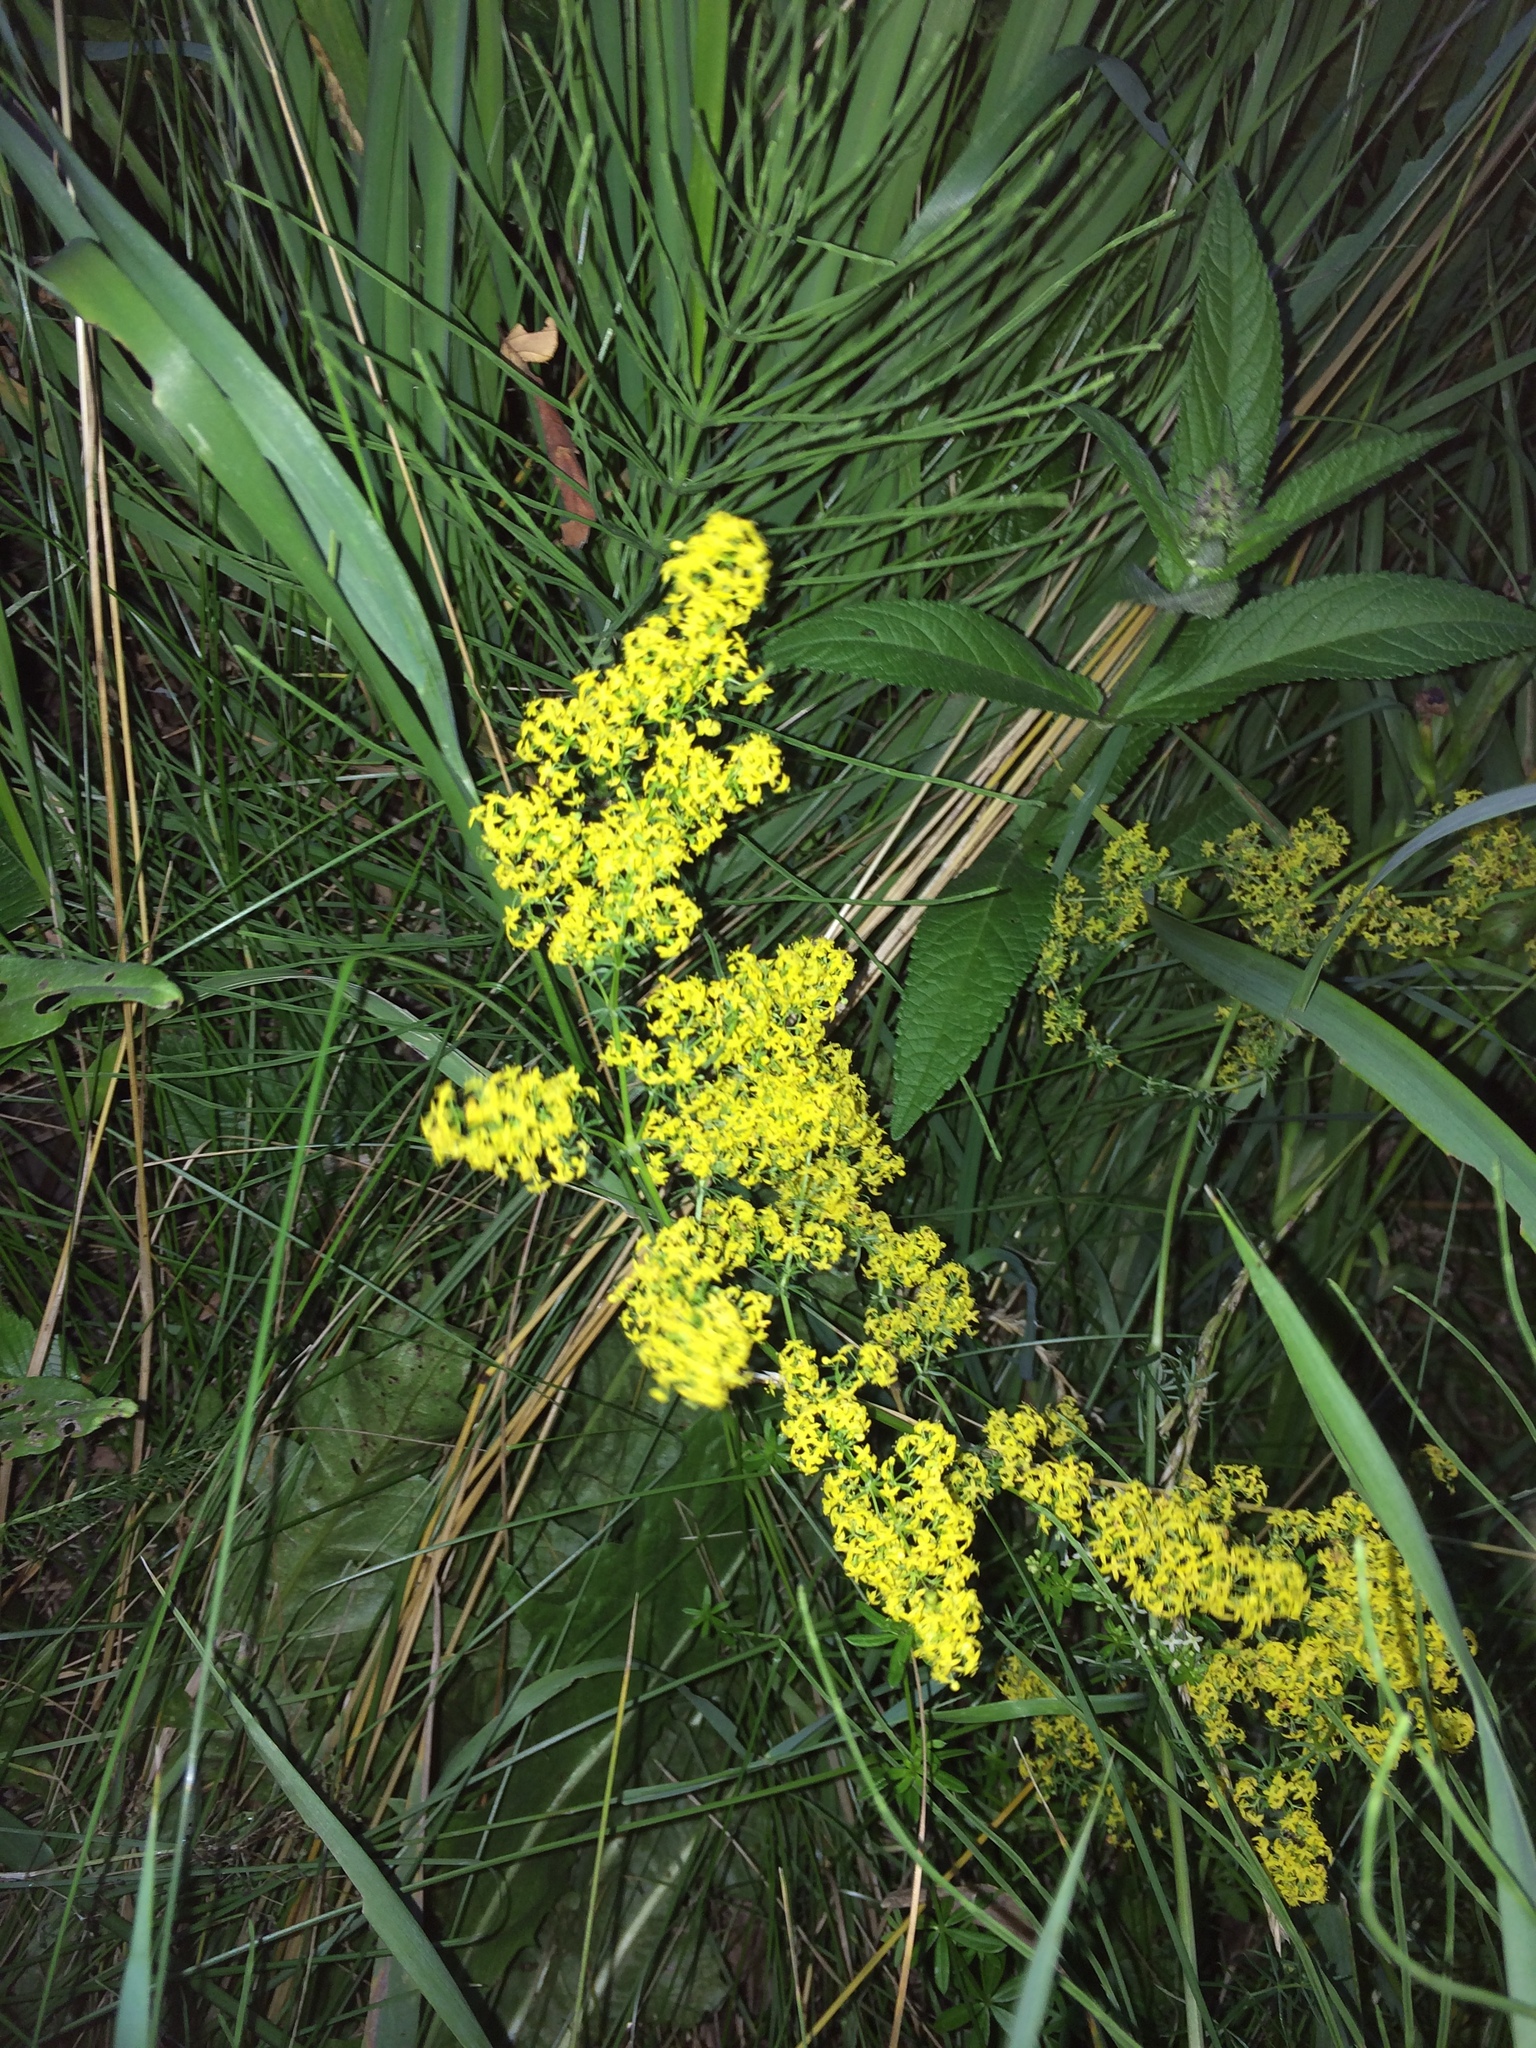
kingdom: Plantae
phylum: Tracheophyta
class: Magnoliopsida
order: Gentianales
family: Rubiaceae
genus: Galium
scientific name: Galium verum
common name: Lady's bedstraw
